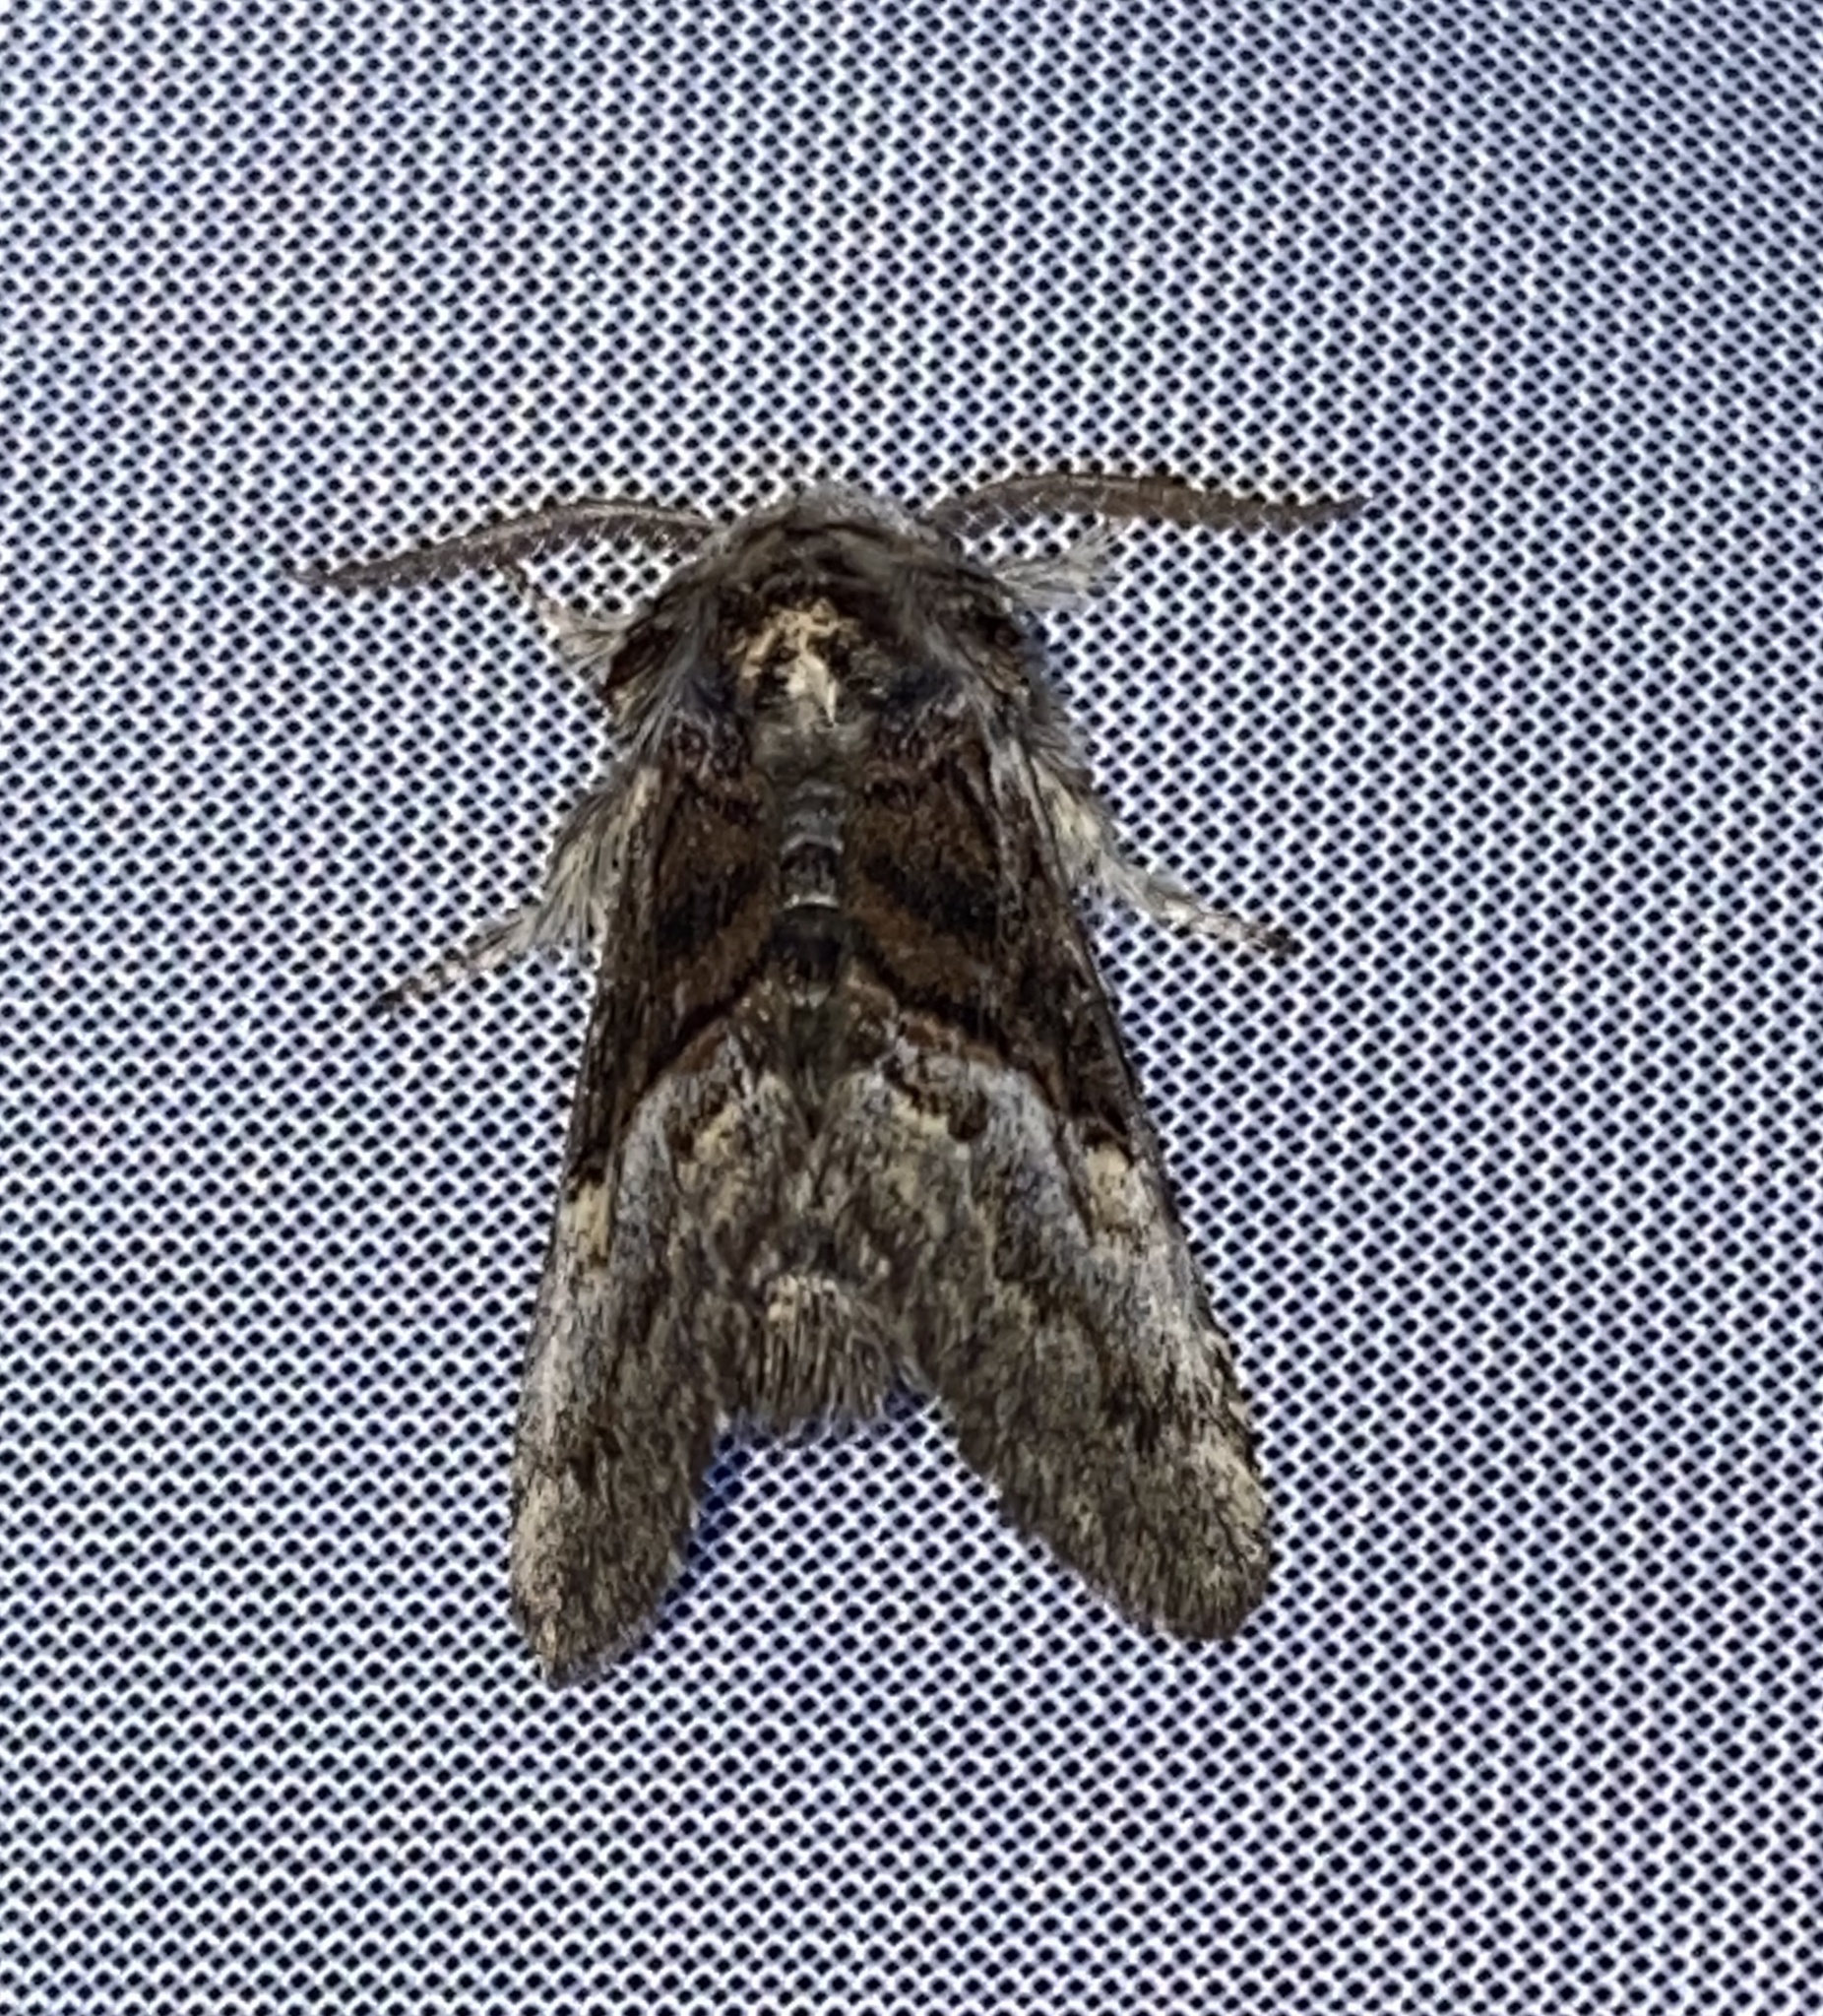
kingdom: Animalia
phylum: Arthropoda
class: Insecta
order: Lepidoptera
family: Noctuidae
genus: Colocasia
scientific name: Colocasia coryli
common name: Nut-tree tussock
